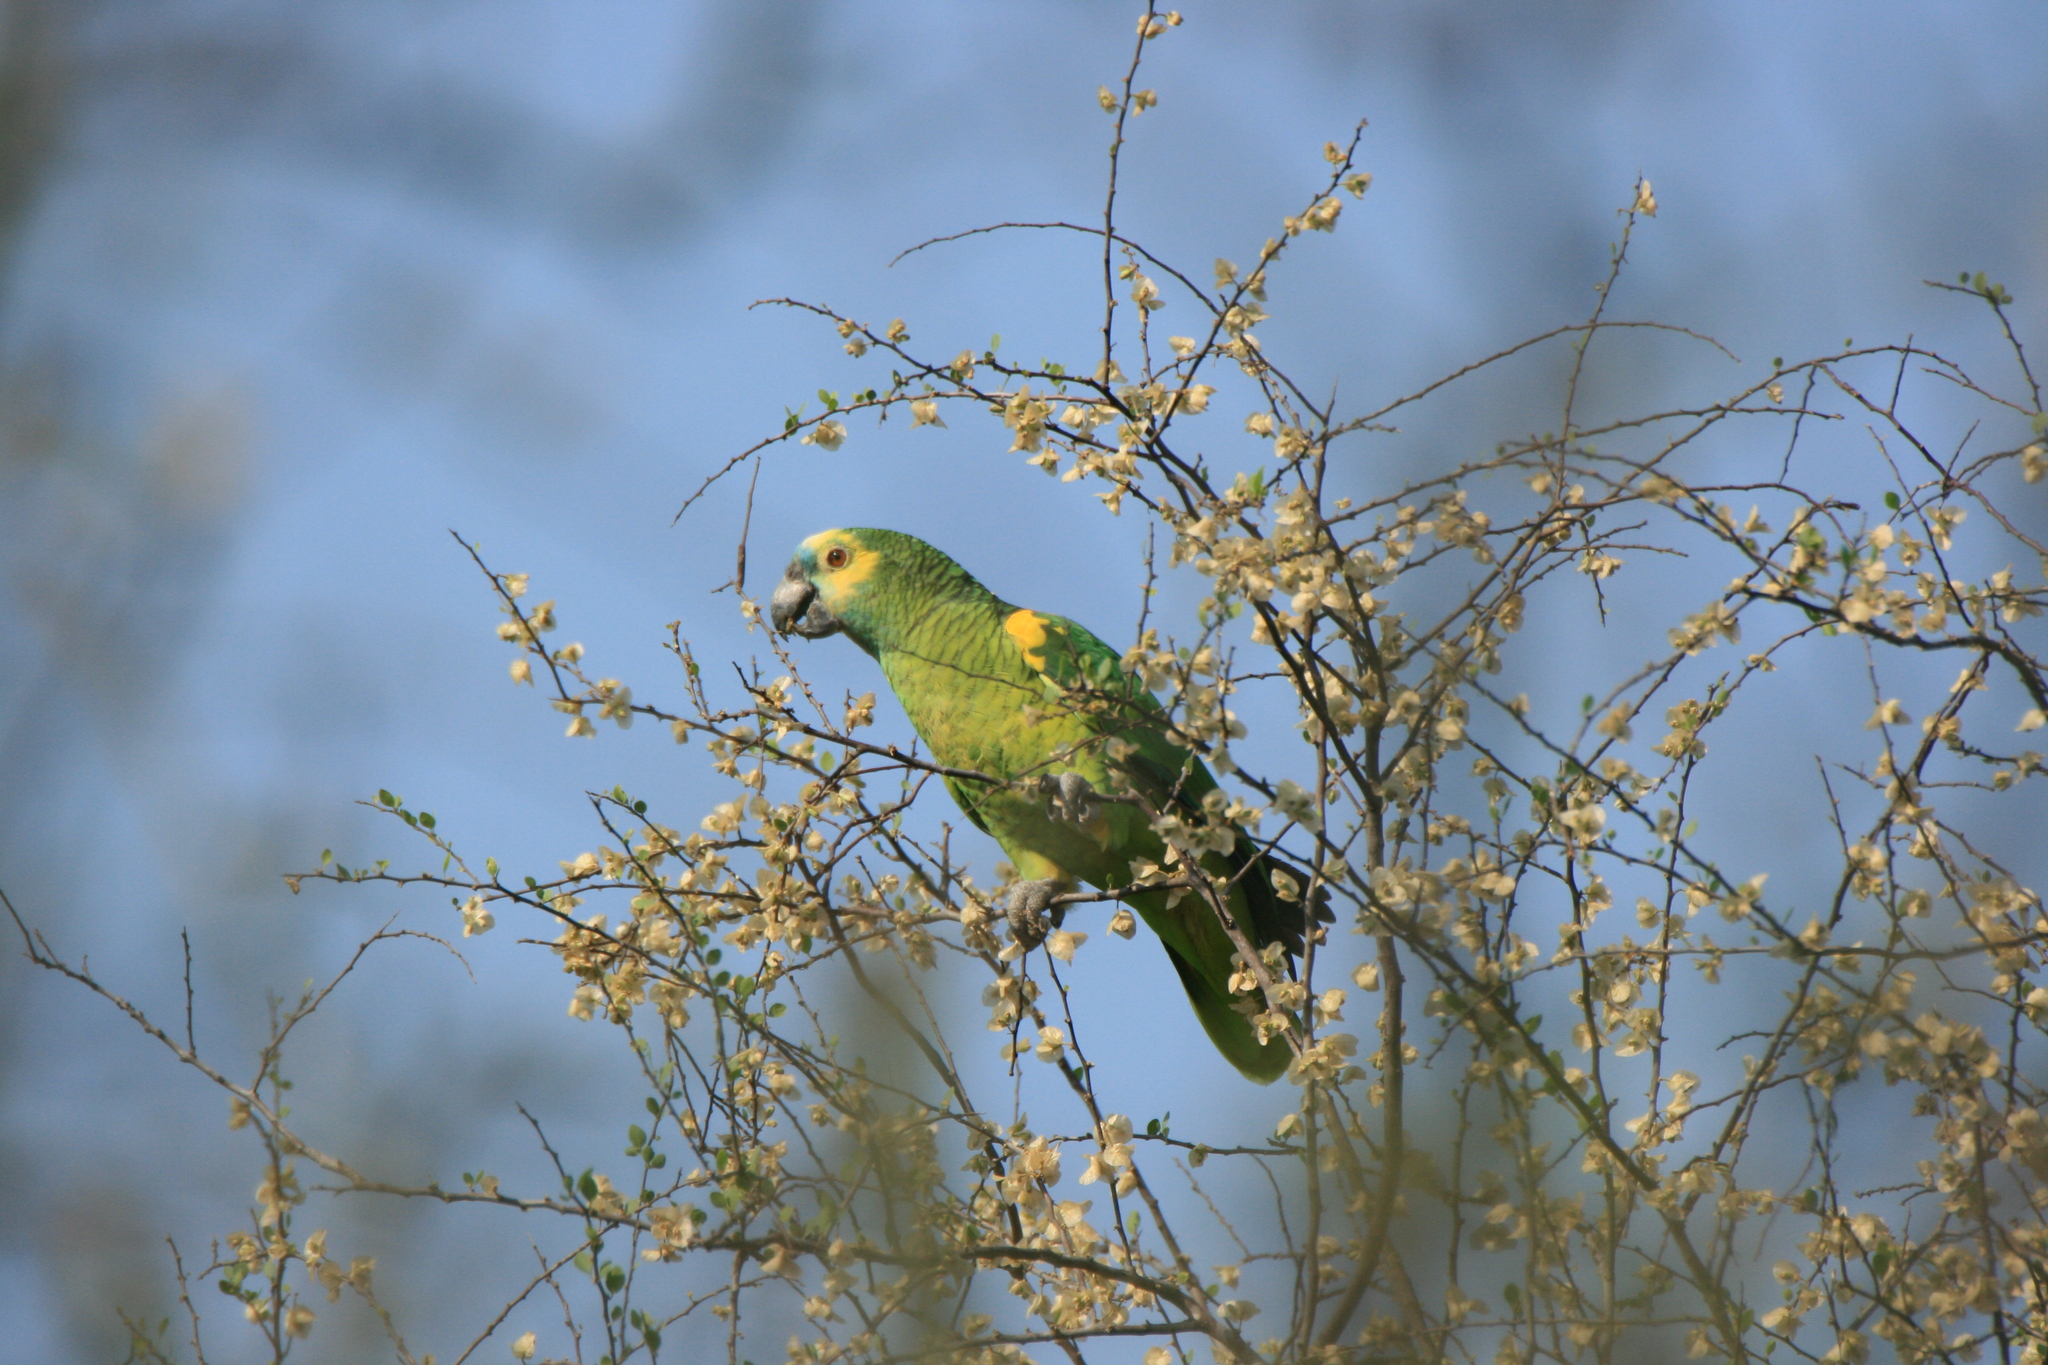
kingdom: Animalia
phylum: Chordata
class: Aves
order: Psittaciformes
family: Psittacidae
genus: Amazona
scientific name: Amazona aestiva
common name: Turquoise-fronted amazon
